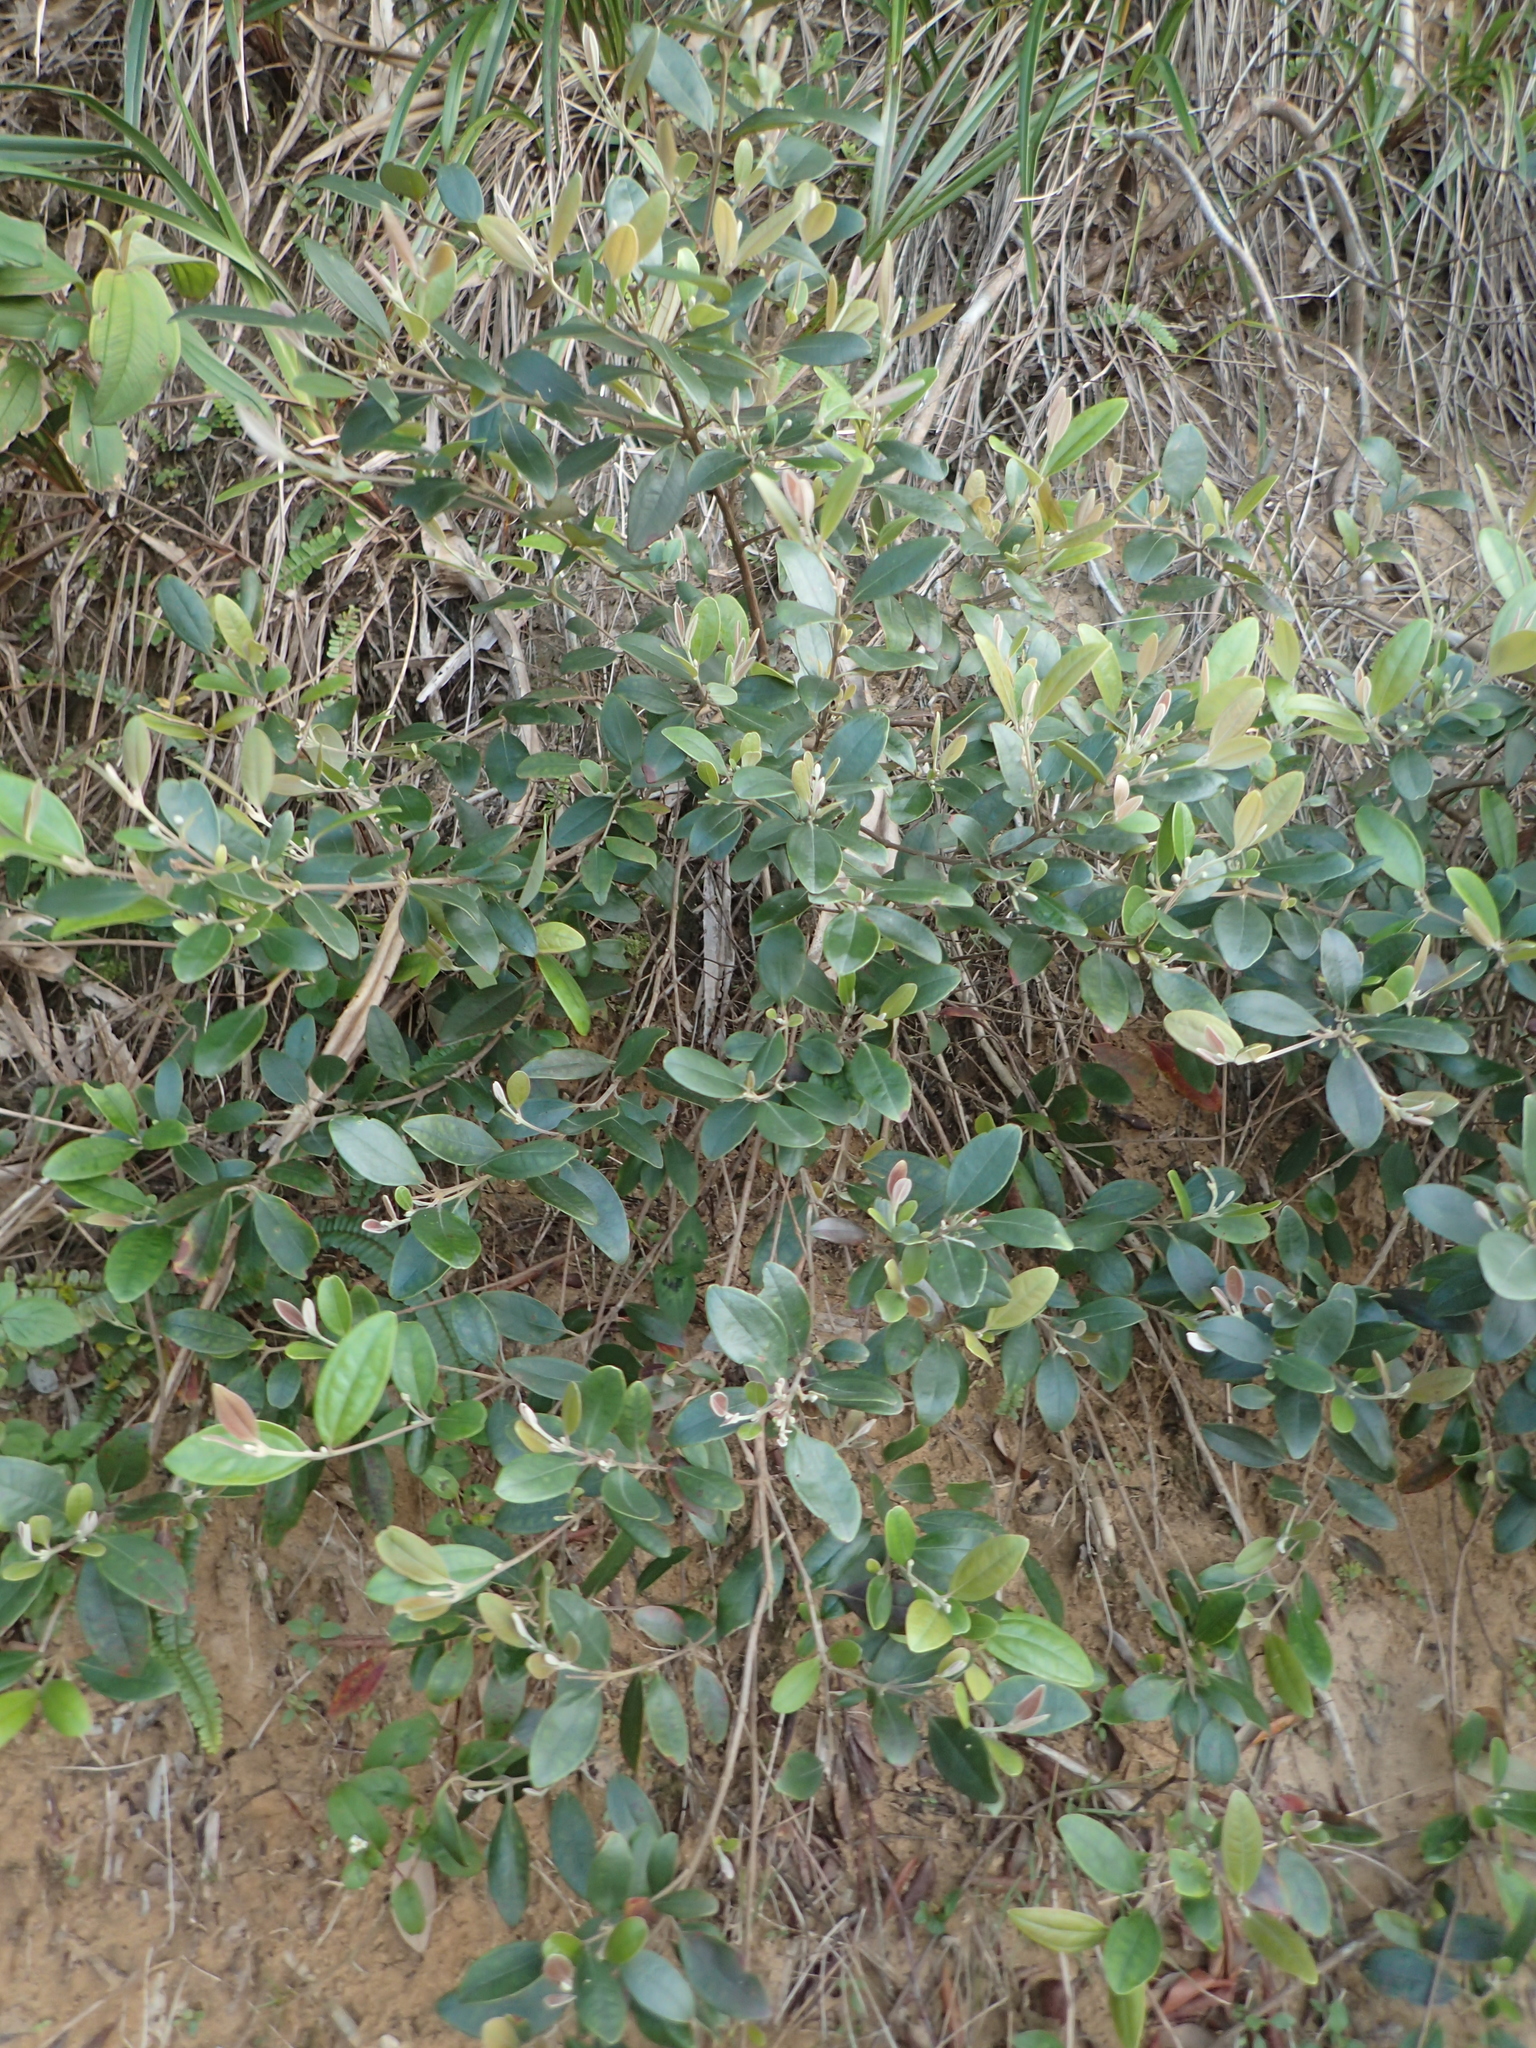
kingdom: Plantae
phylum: Tracheophyta
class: Magnoliopsida
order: Myrtales
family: Myrtaceae
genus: Rhodomyrtus
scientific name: Rhodomyrtus tomentosa
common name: Rose myrtle
